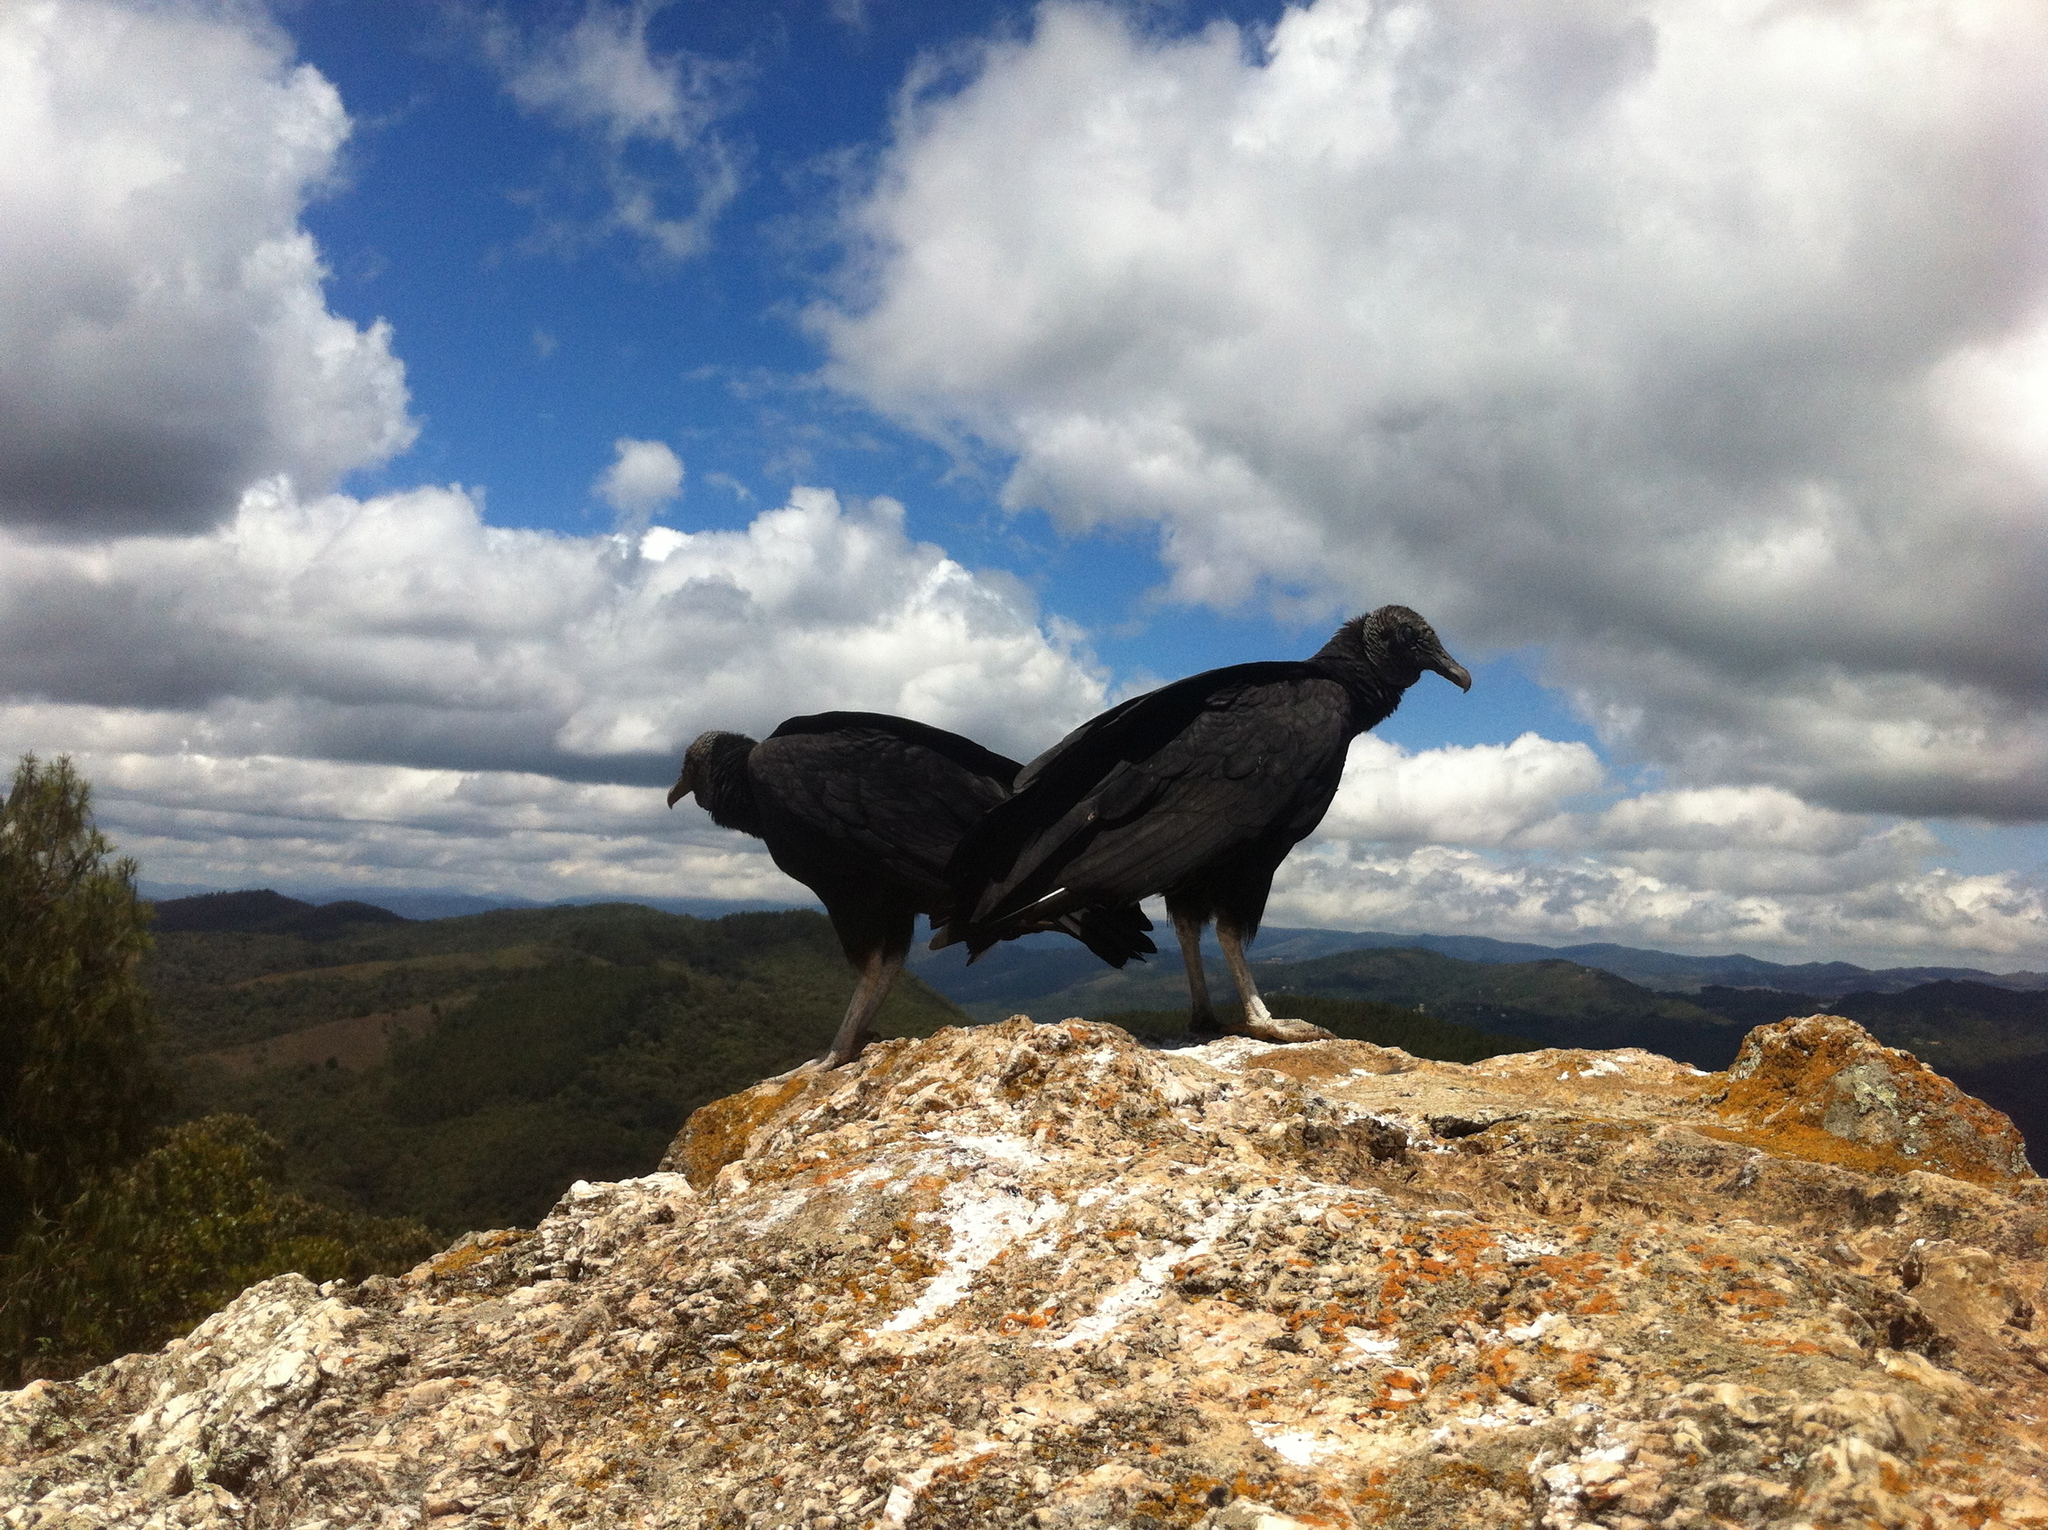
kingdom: Animalia
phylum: Chordata
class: Aves
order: Accipitriformes
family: Cathartidae
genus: Coragyps
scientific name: Coragyps atratus
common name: Black vulture
